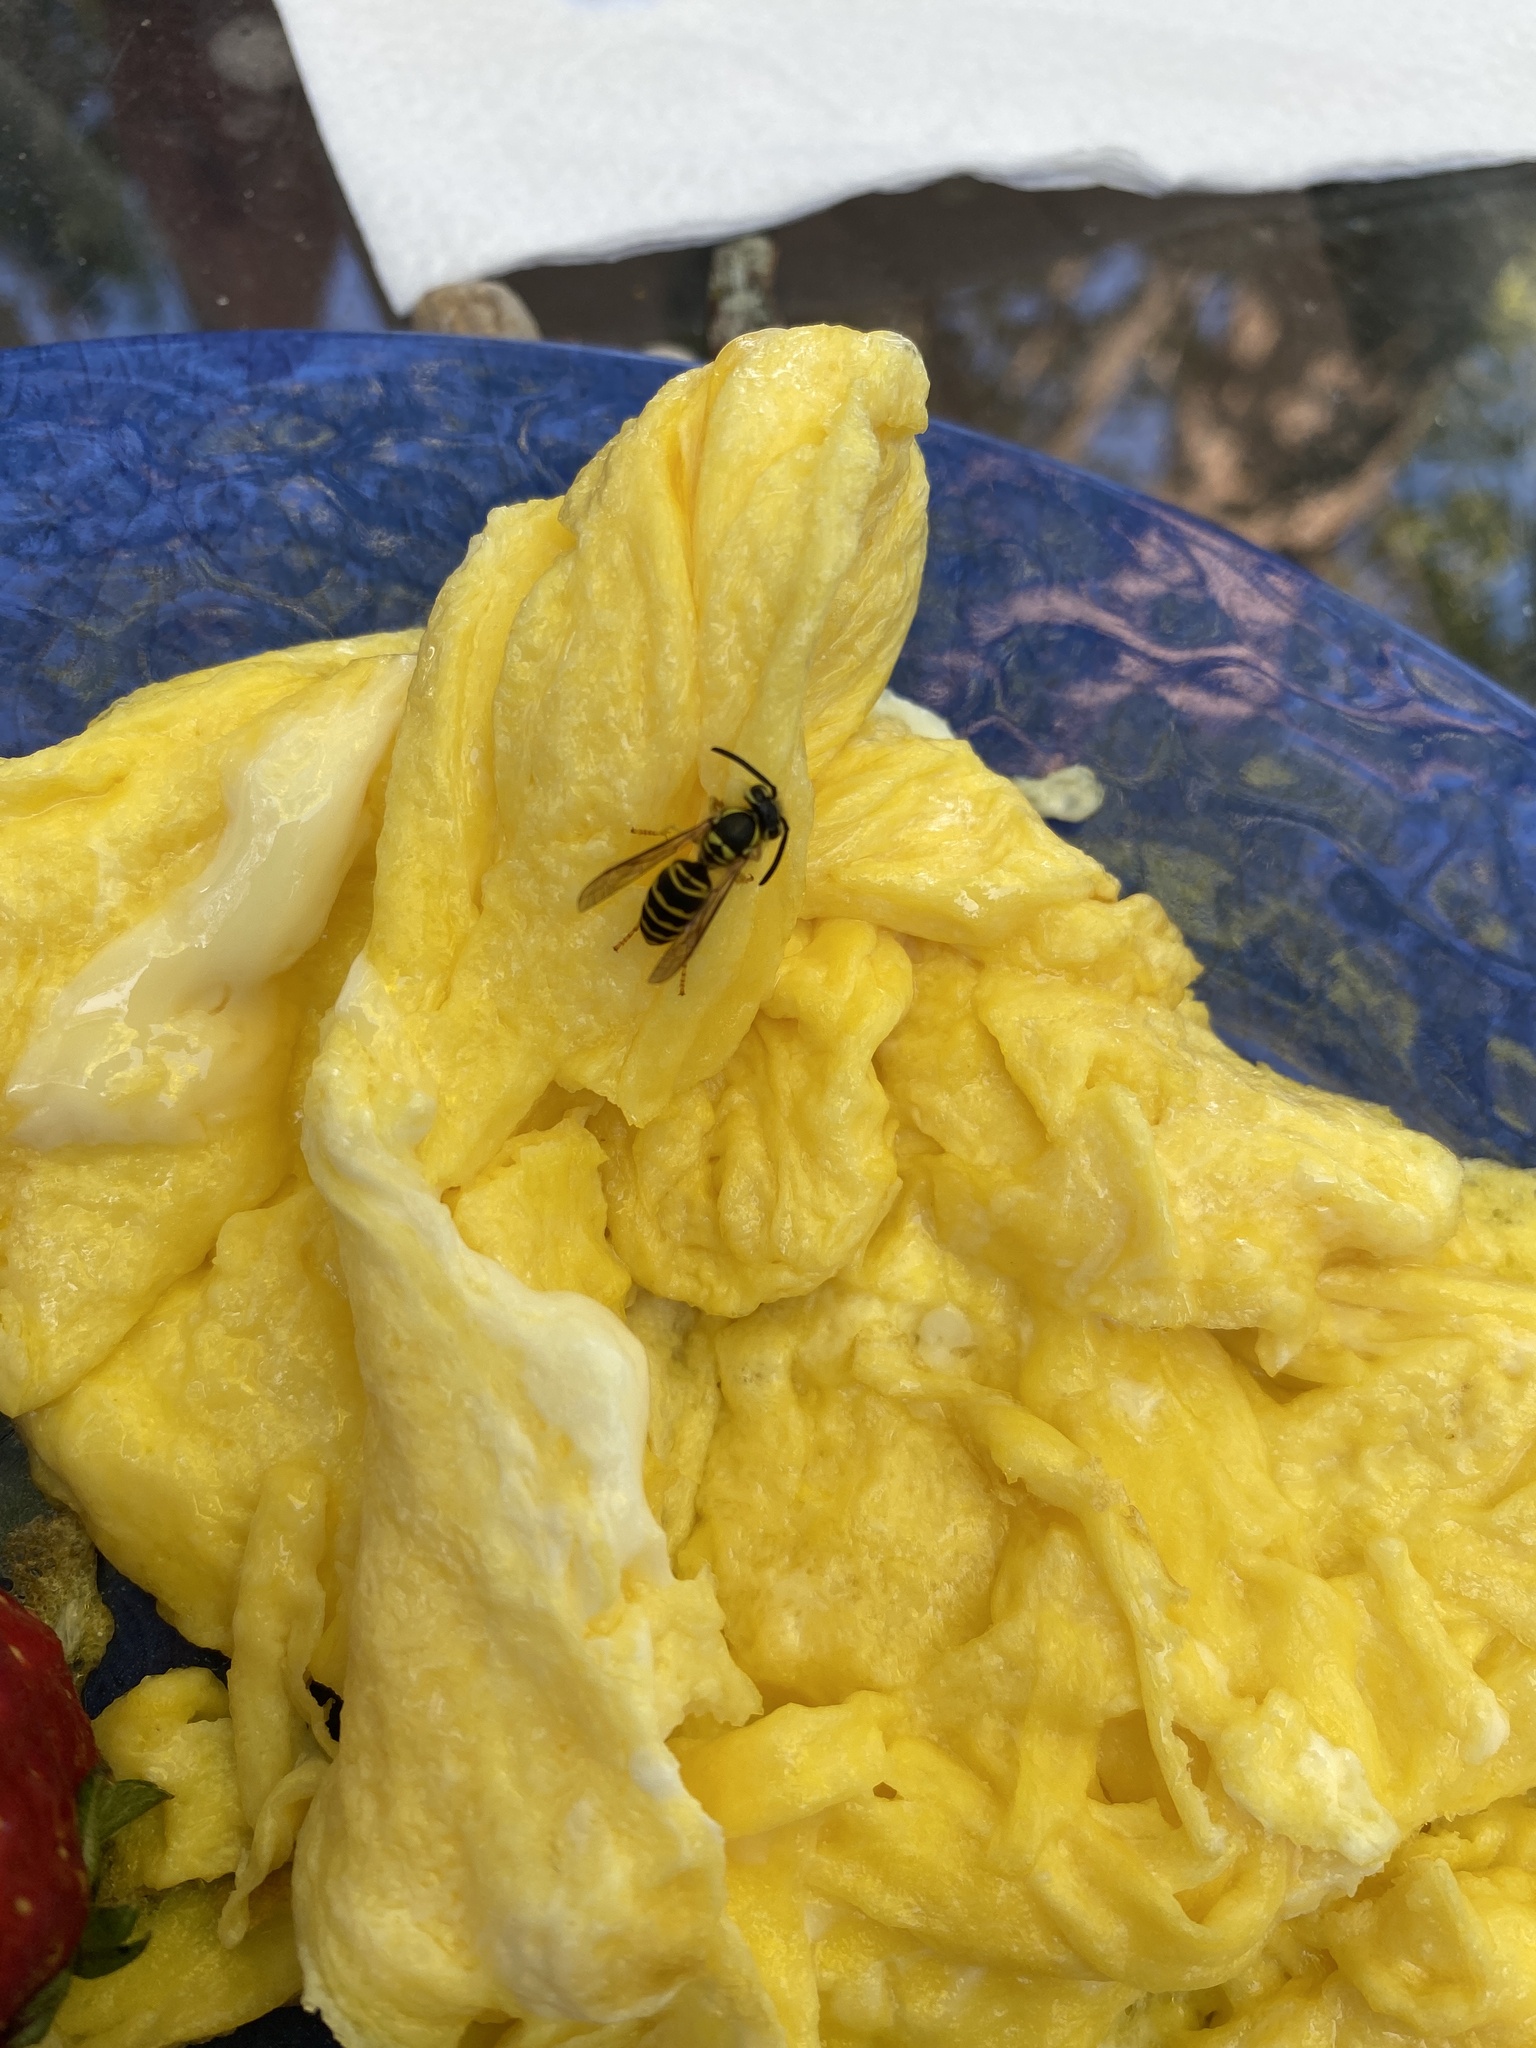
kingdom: Animalia
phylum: Arthropoda
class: Insecta
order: Hymenoptera
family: Vespidae
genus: Vespula
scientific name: Vespula maculifrons
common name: Eastern yellowjacket
